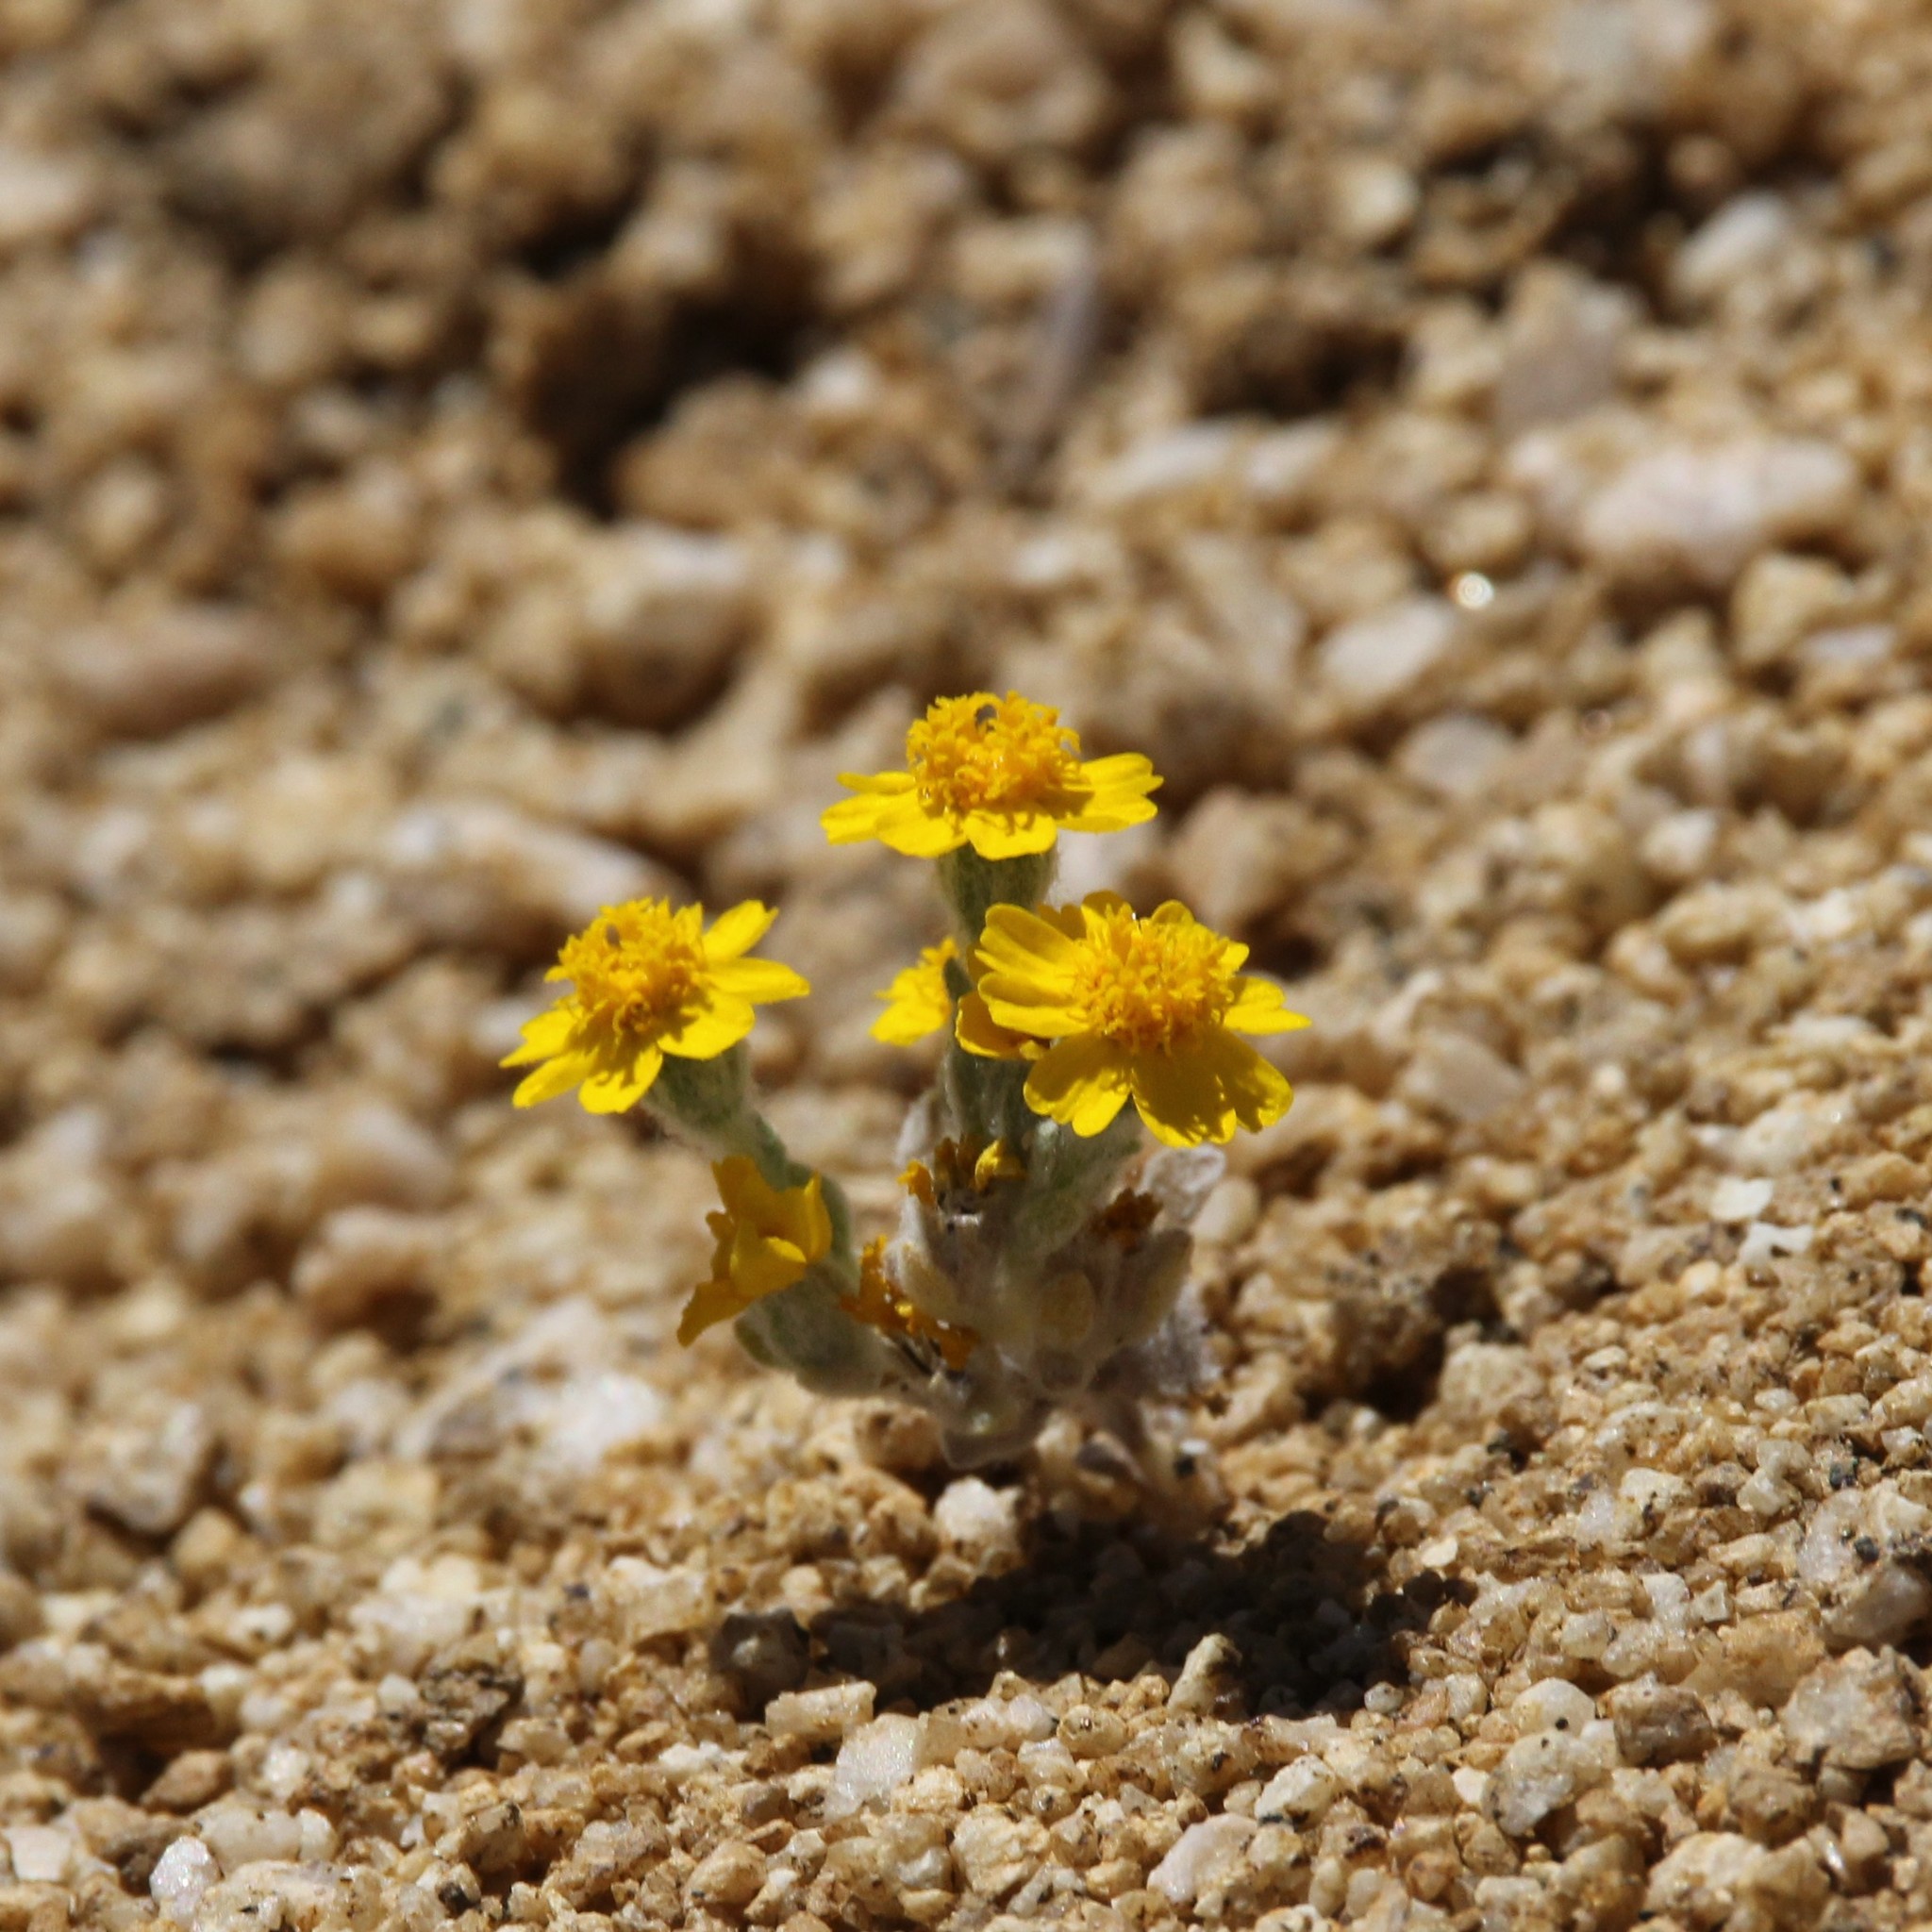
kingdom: Plantae
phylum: Tracheophyta
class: Magnoliopsida
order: Asterales
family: Asteraceae
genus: Eriophyllum
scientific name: Eriophyllum wallacei
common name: Wallace's woolly daisy
